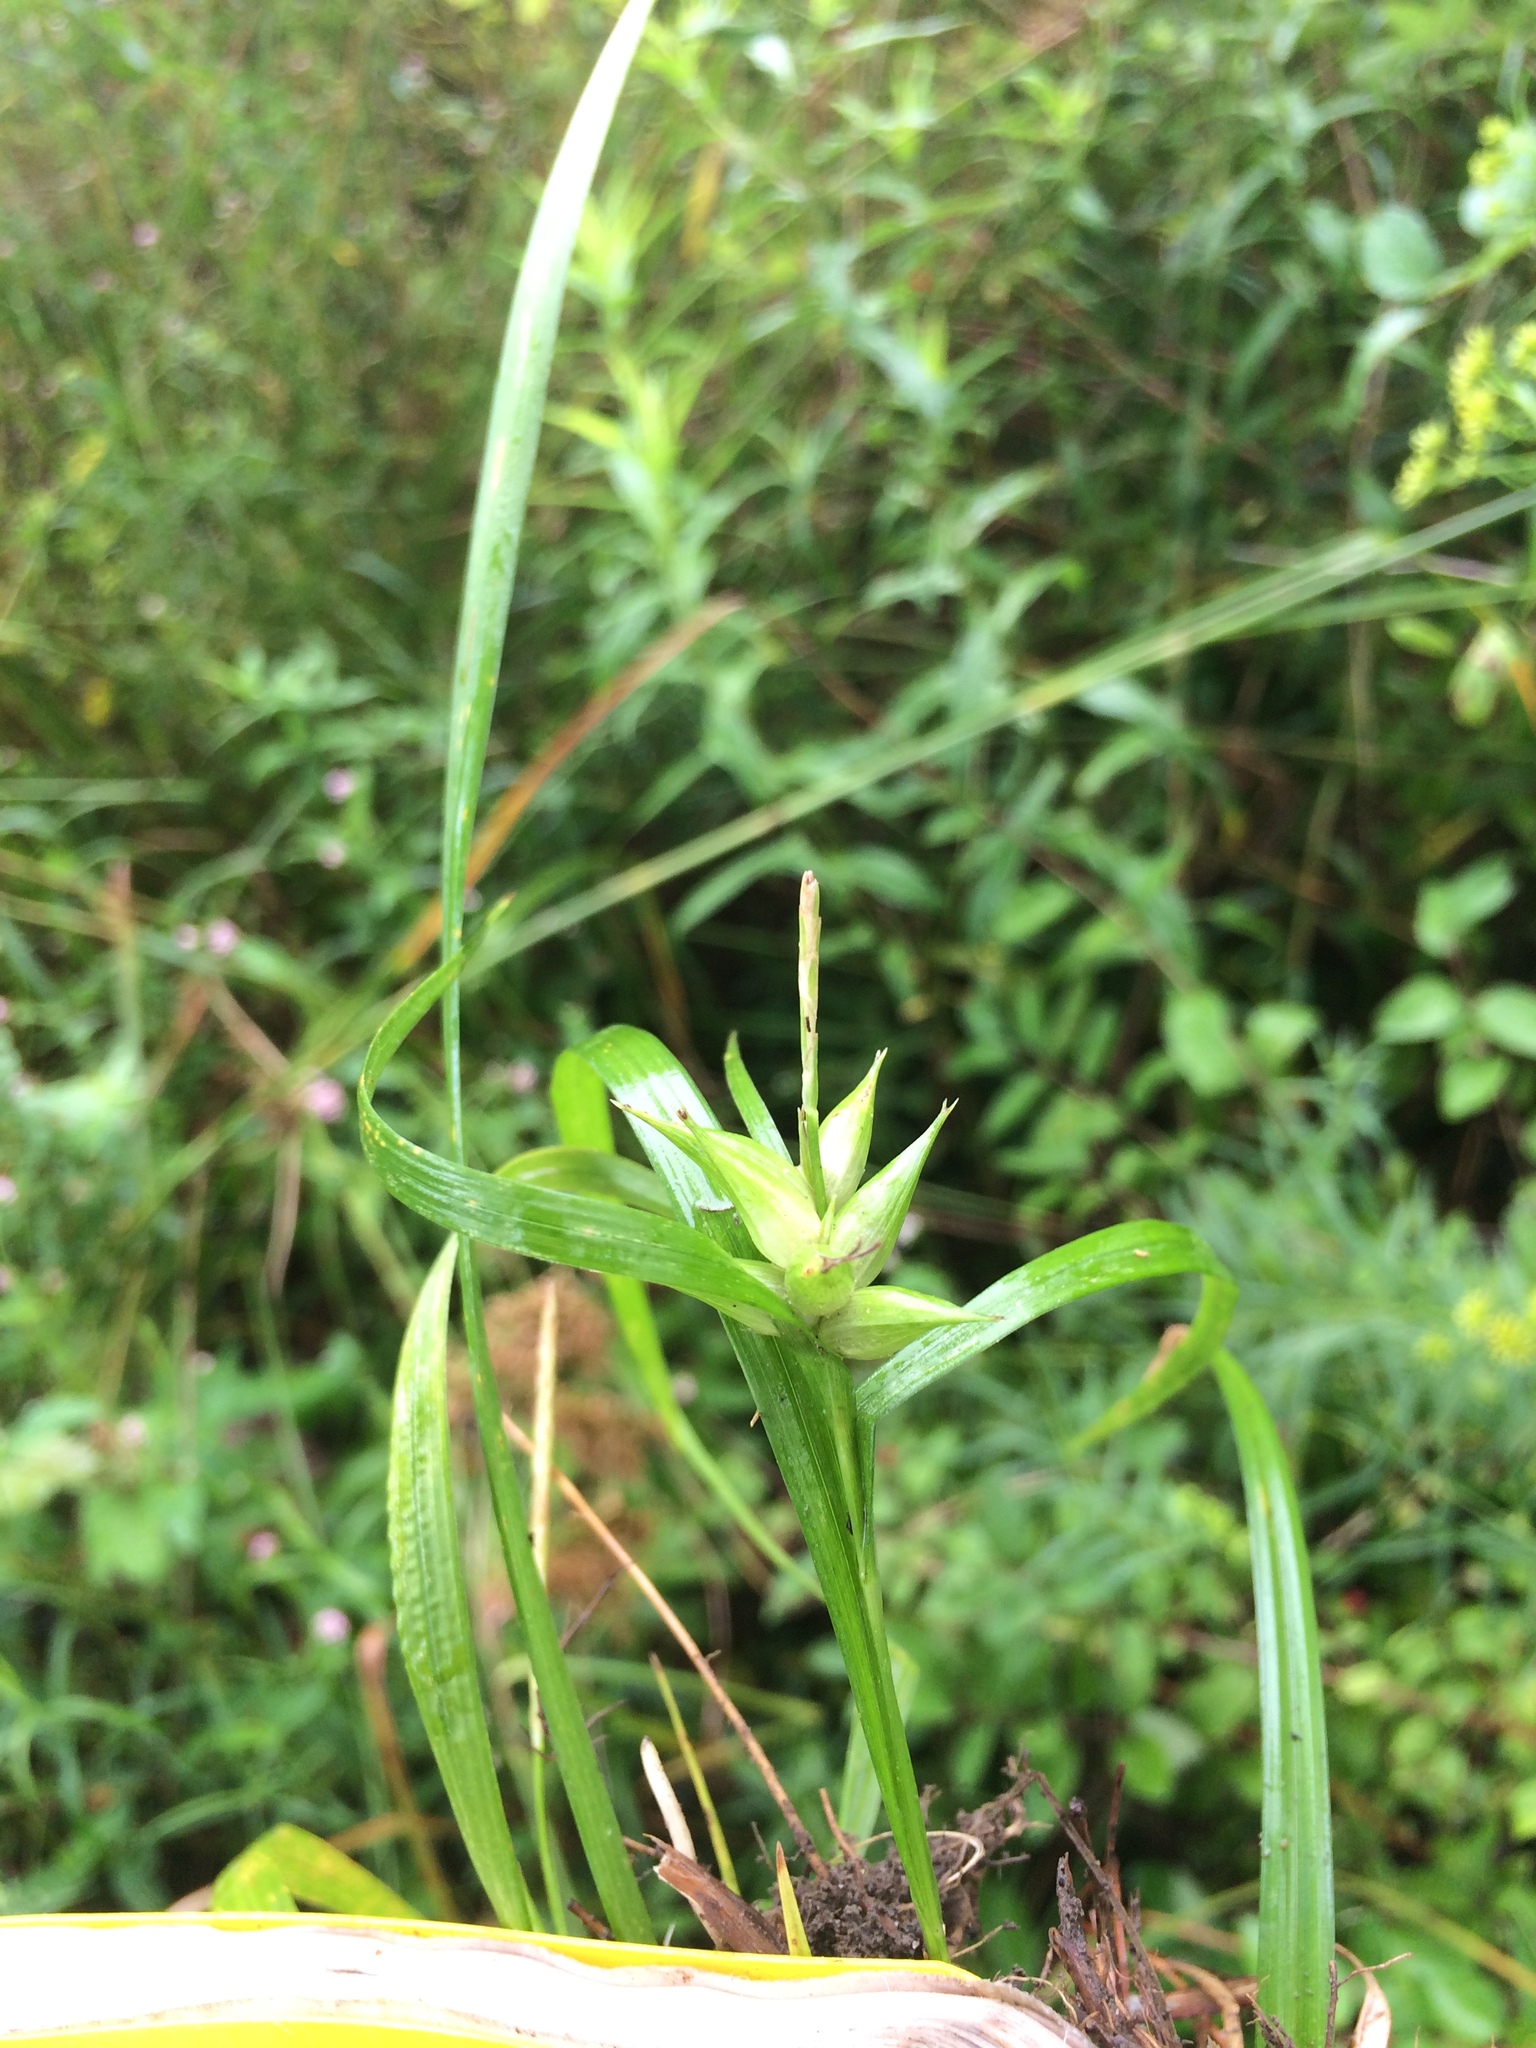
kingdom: Plantae
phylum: Tracheophyta
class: Liliopsida
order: Poales
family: Cyperaceae
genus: Carex
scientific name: Carex intumescens
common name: Greater bladder sedge
